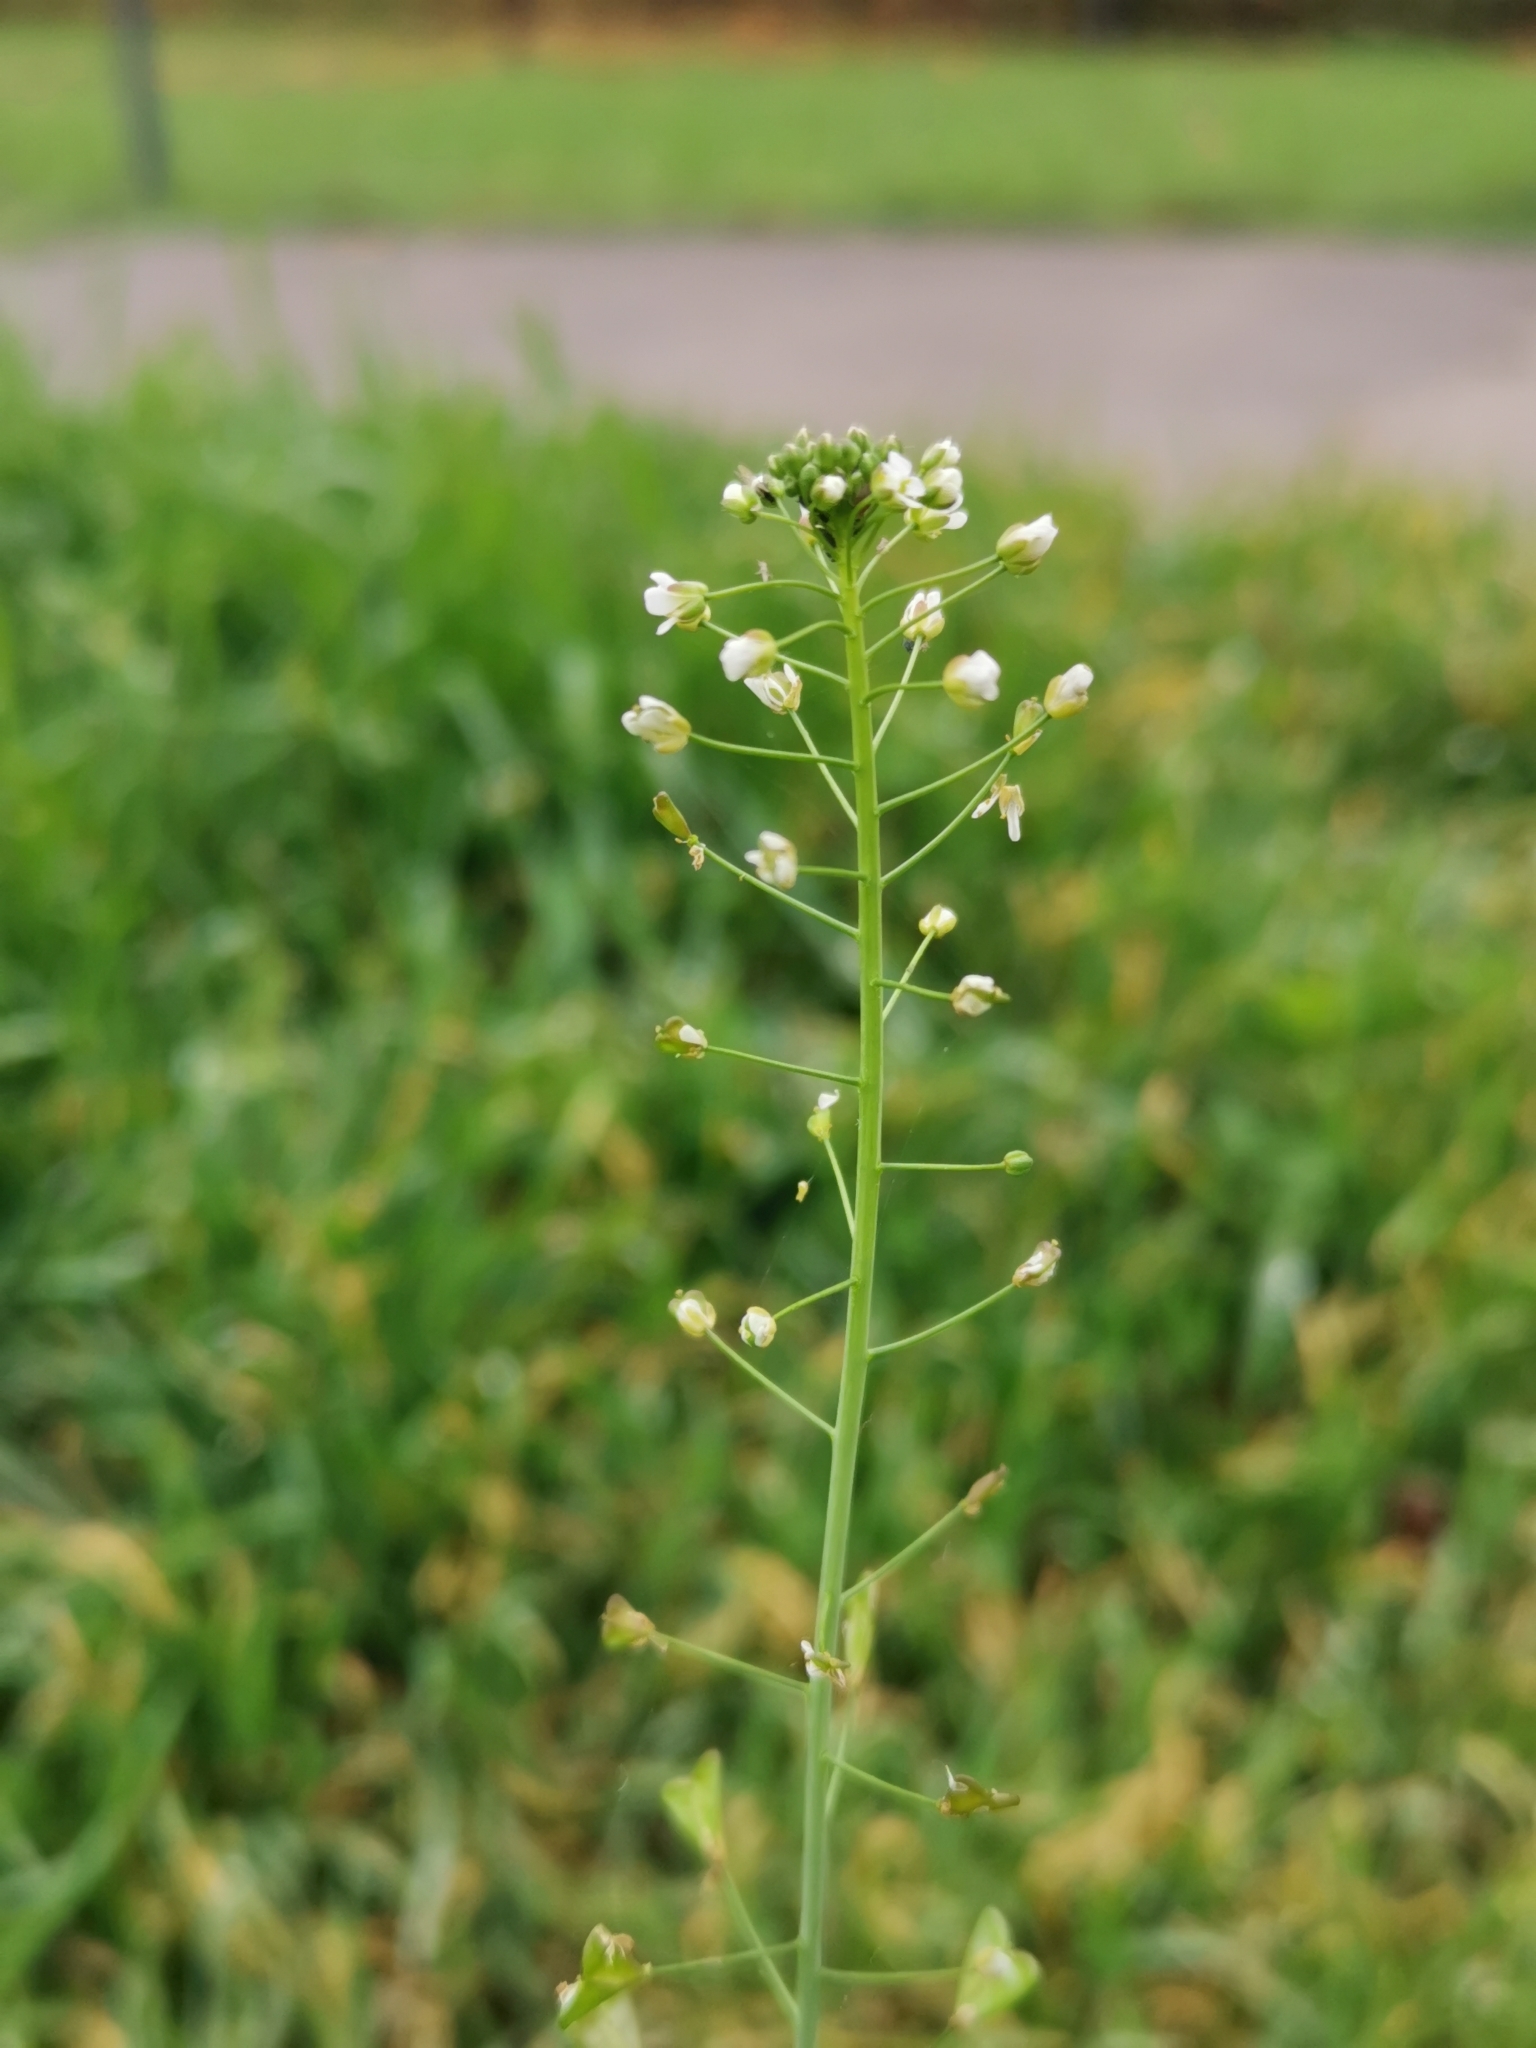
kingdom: Plantae
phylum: Tracheophyta
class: Magnoliopsida
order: Brassicales
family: Brassicaceae
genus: Capsella
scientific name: Capsella bursa-pastoris
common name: Shepherd's purse
